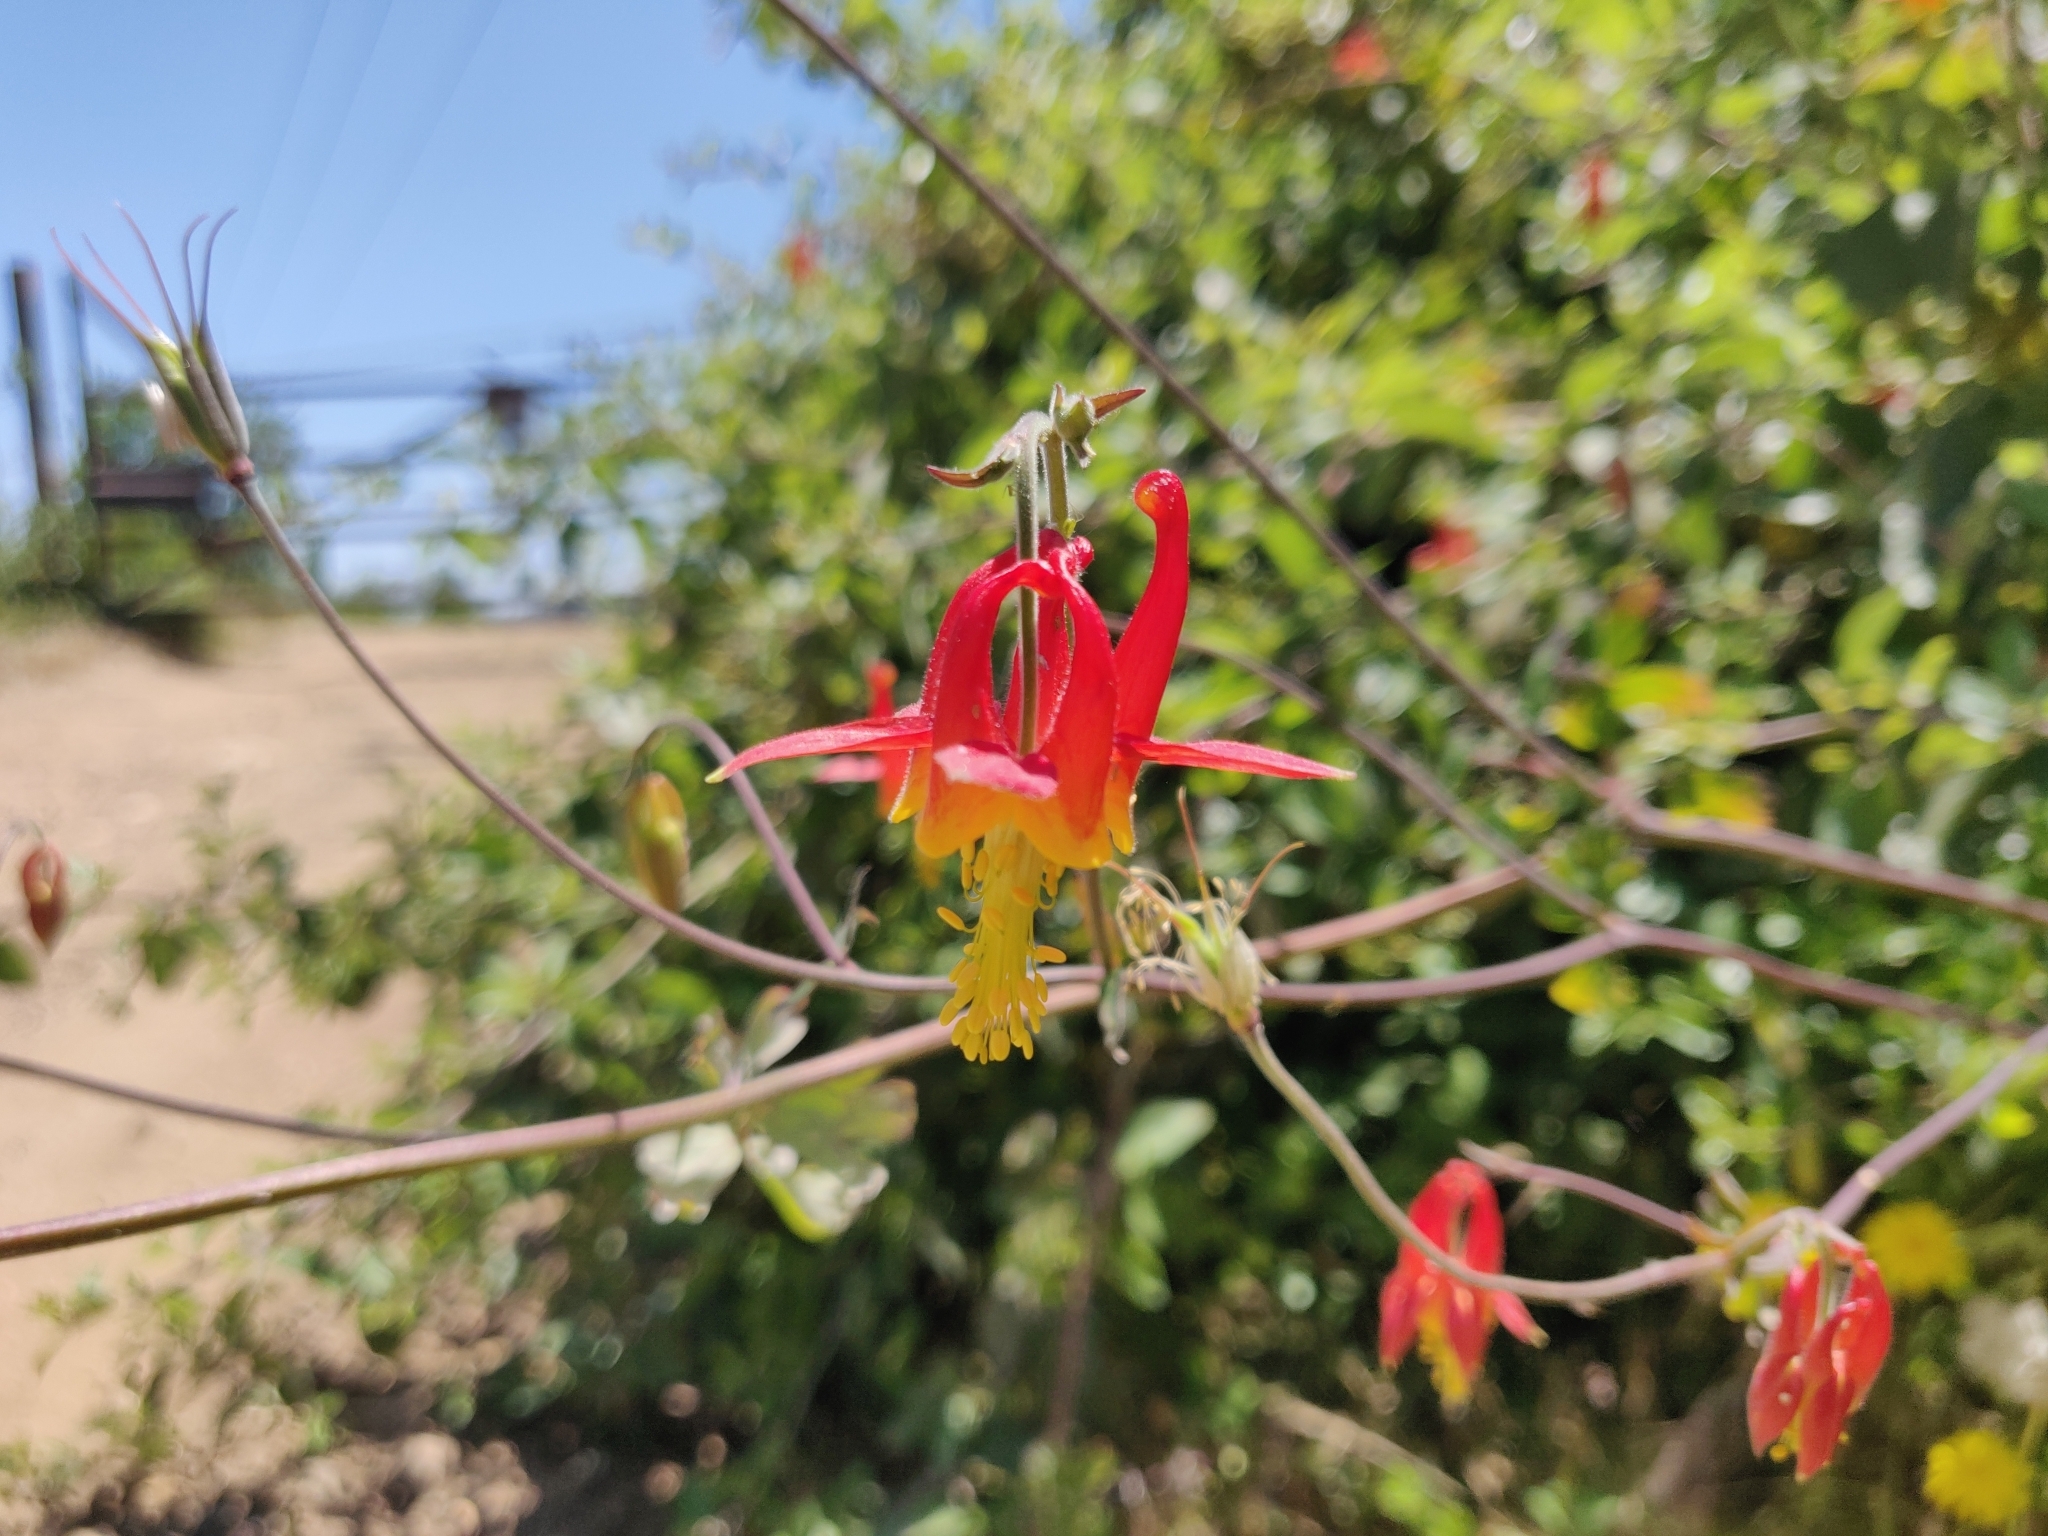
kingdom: Plantae
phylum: Tracheophyta
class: Magnoliopsida
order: Ranunculales
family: Ranunculaceae
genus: Aquilegia
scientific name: Aquilegia formosa
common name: Sitka columbine
